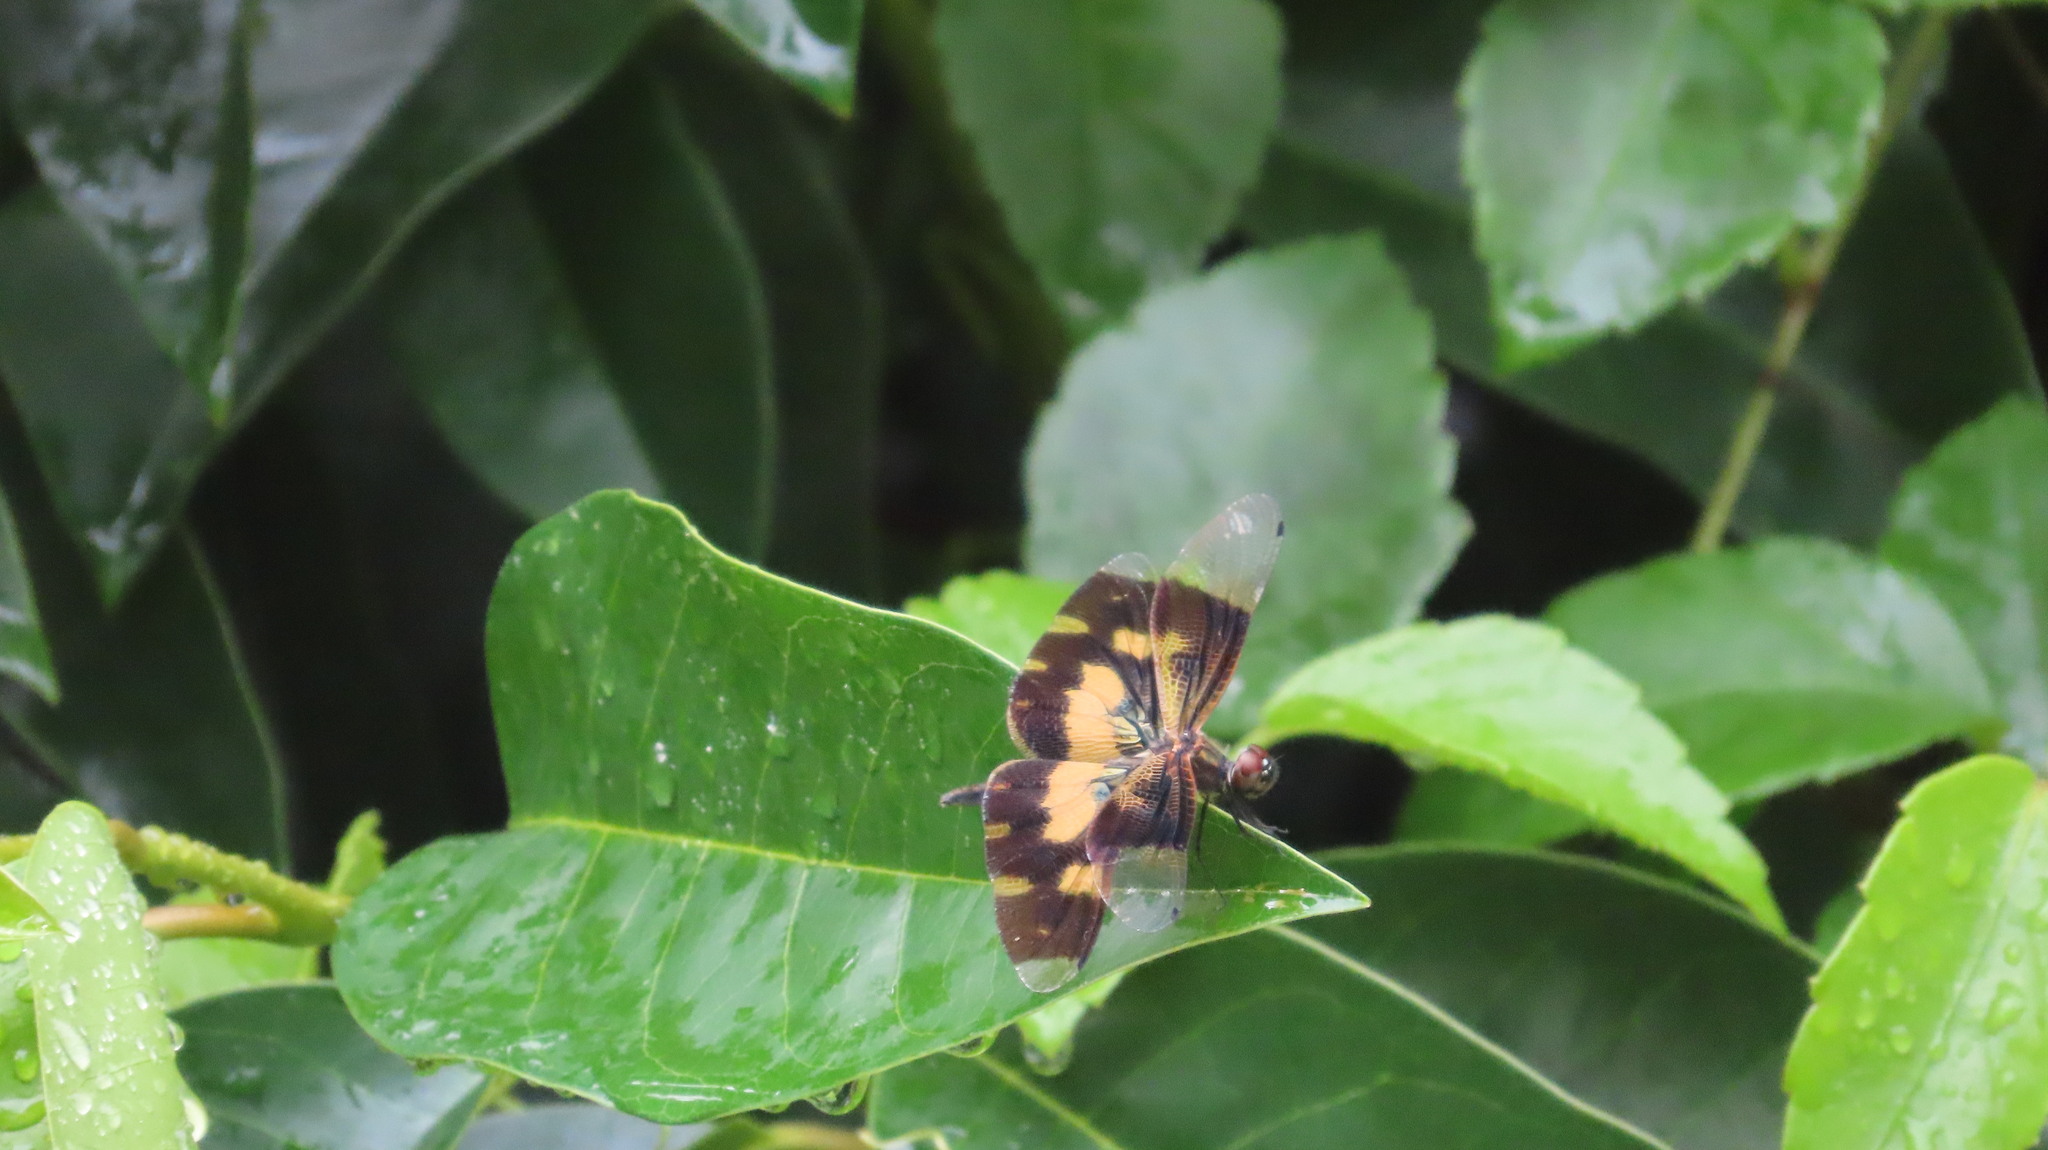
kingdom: Animalia
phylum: Arthropoda
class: Insecta
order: Odonata
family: Libellulidae
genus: Rhyothemis
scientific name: Rhyothemis variegata
